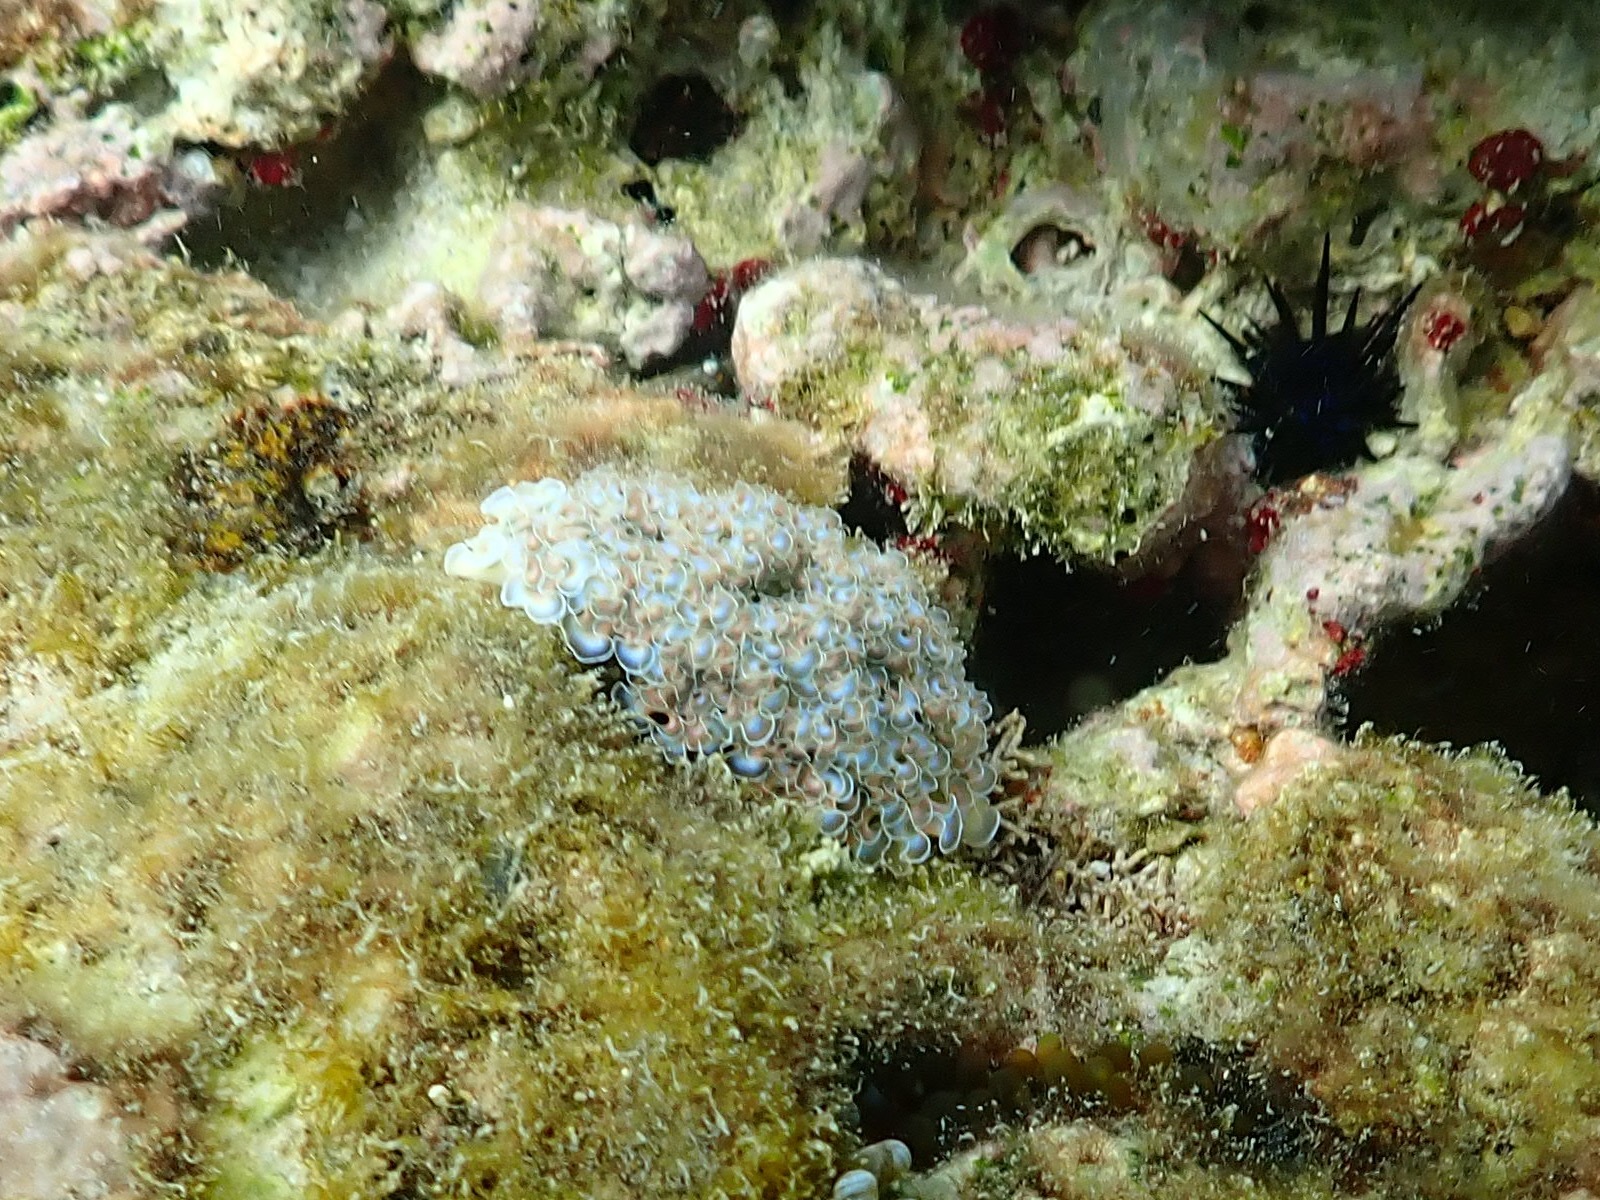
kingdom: Animalia
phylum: Mollusca
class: Gastropoda
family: Plakobranchidae
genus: Elysia
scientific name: Elysia crispata
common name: Lettuce slug
